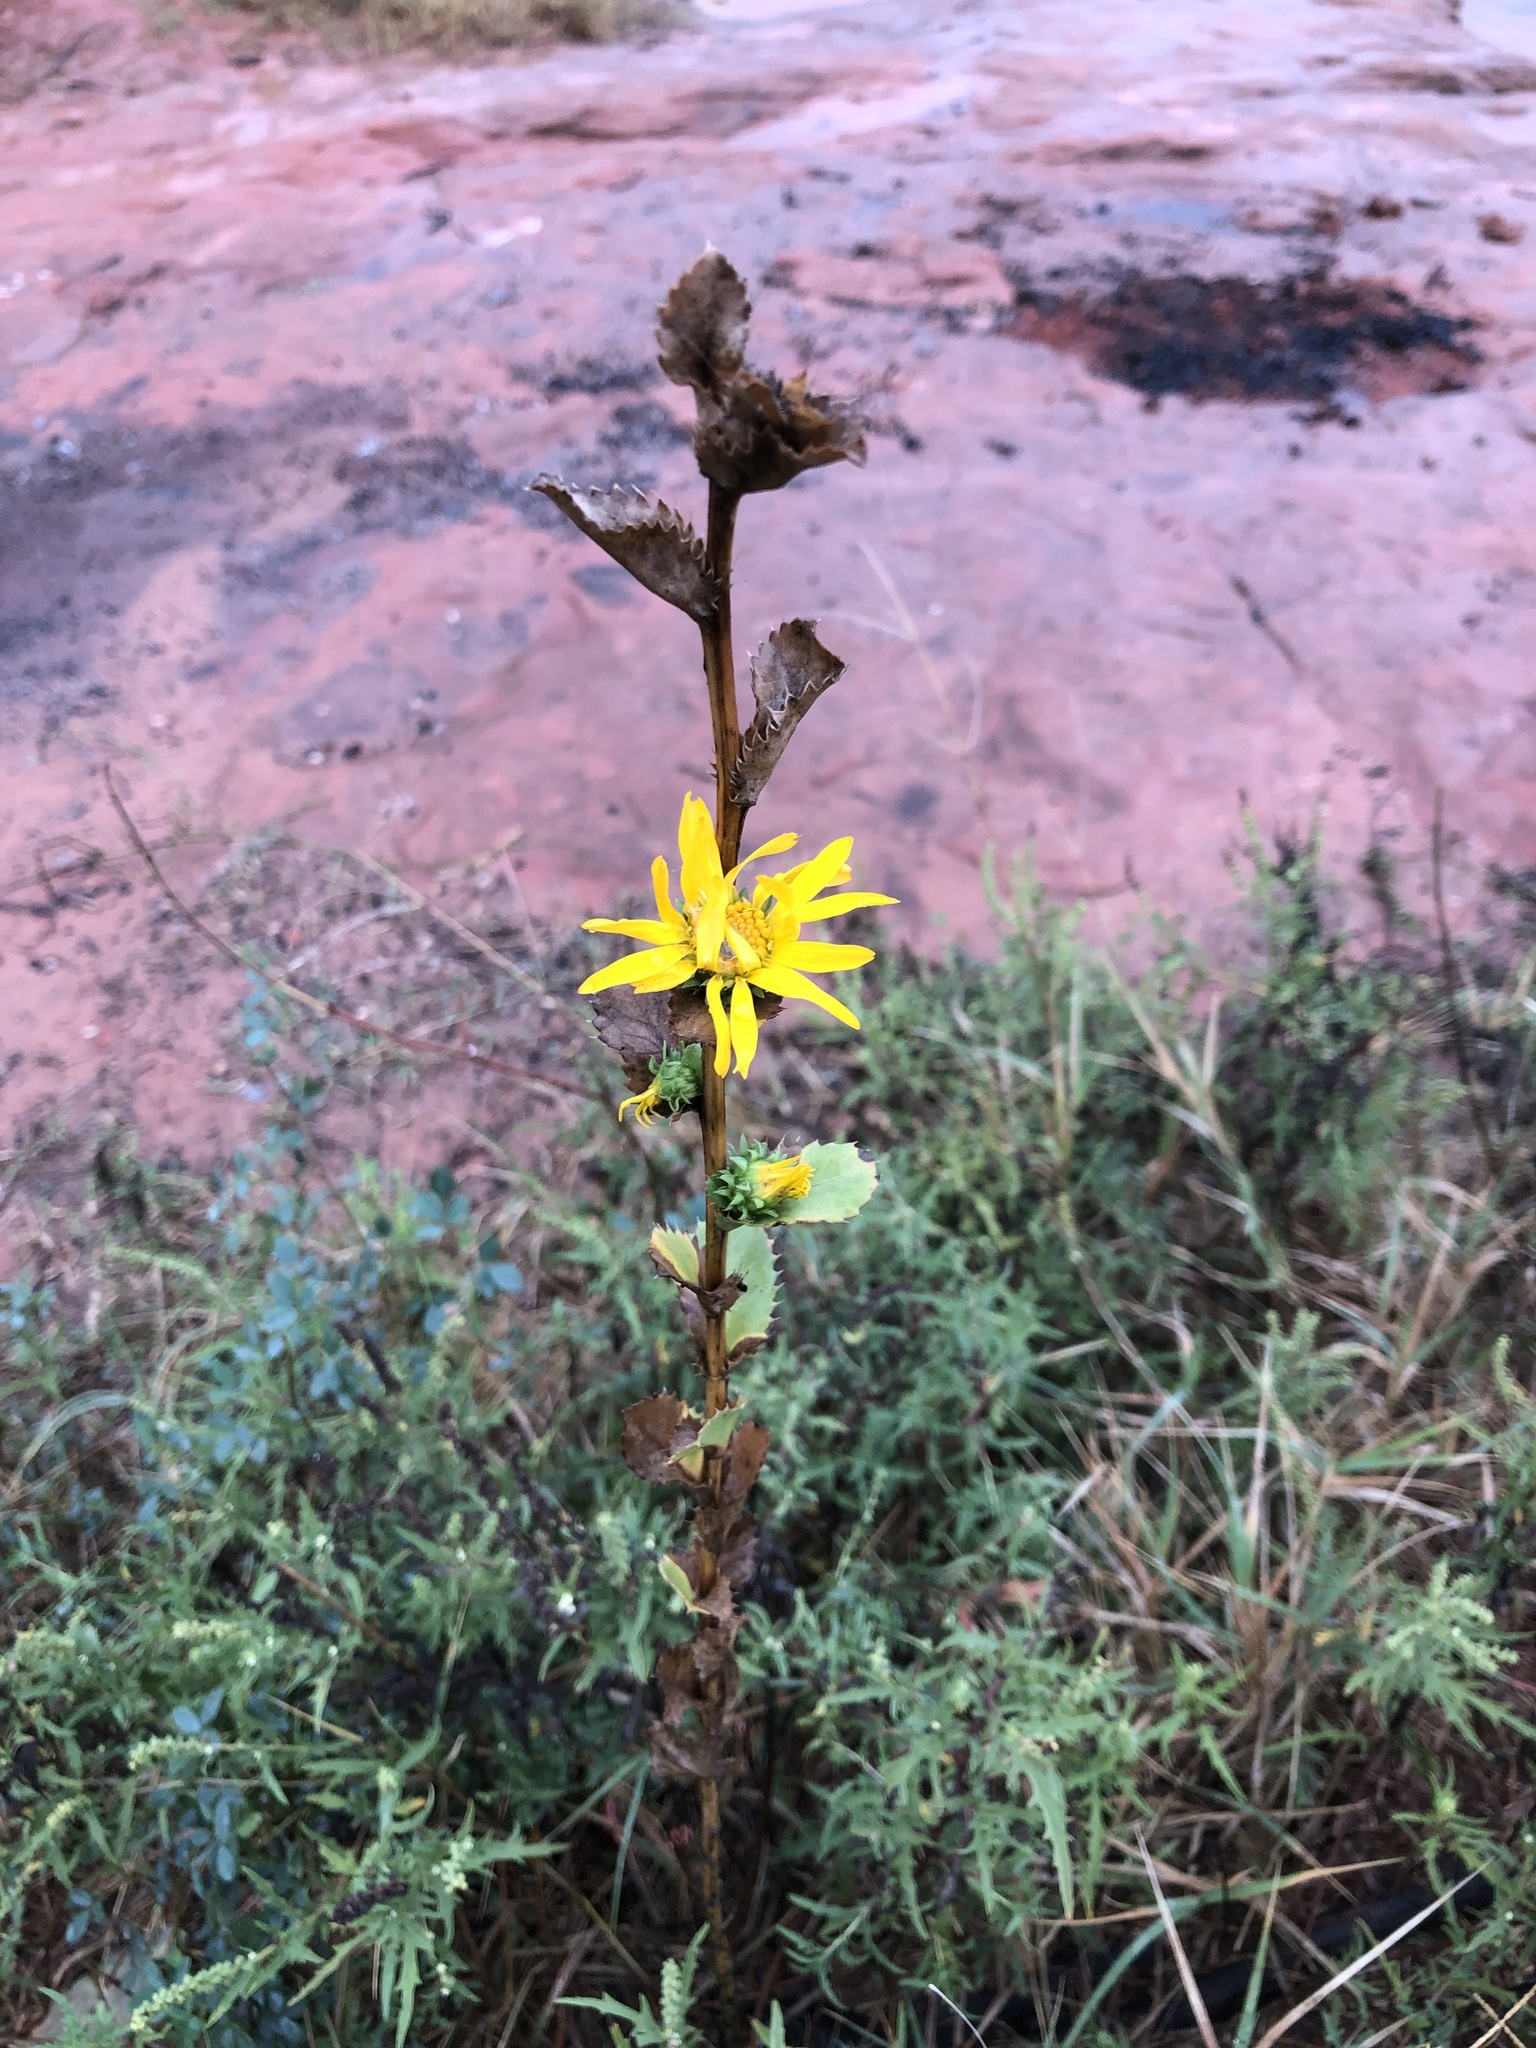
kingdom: Plantae
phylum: Tracheophyta
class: Magnoliopsida
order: Asterales
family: Asteraceae
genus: Grindelia
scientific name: Grindelia ciliata
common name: Goldenweed
